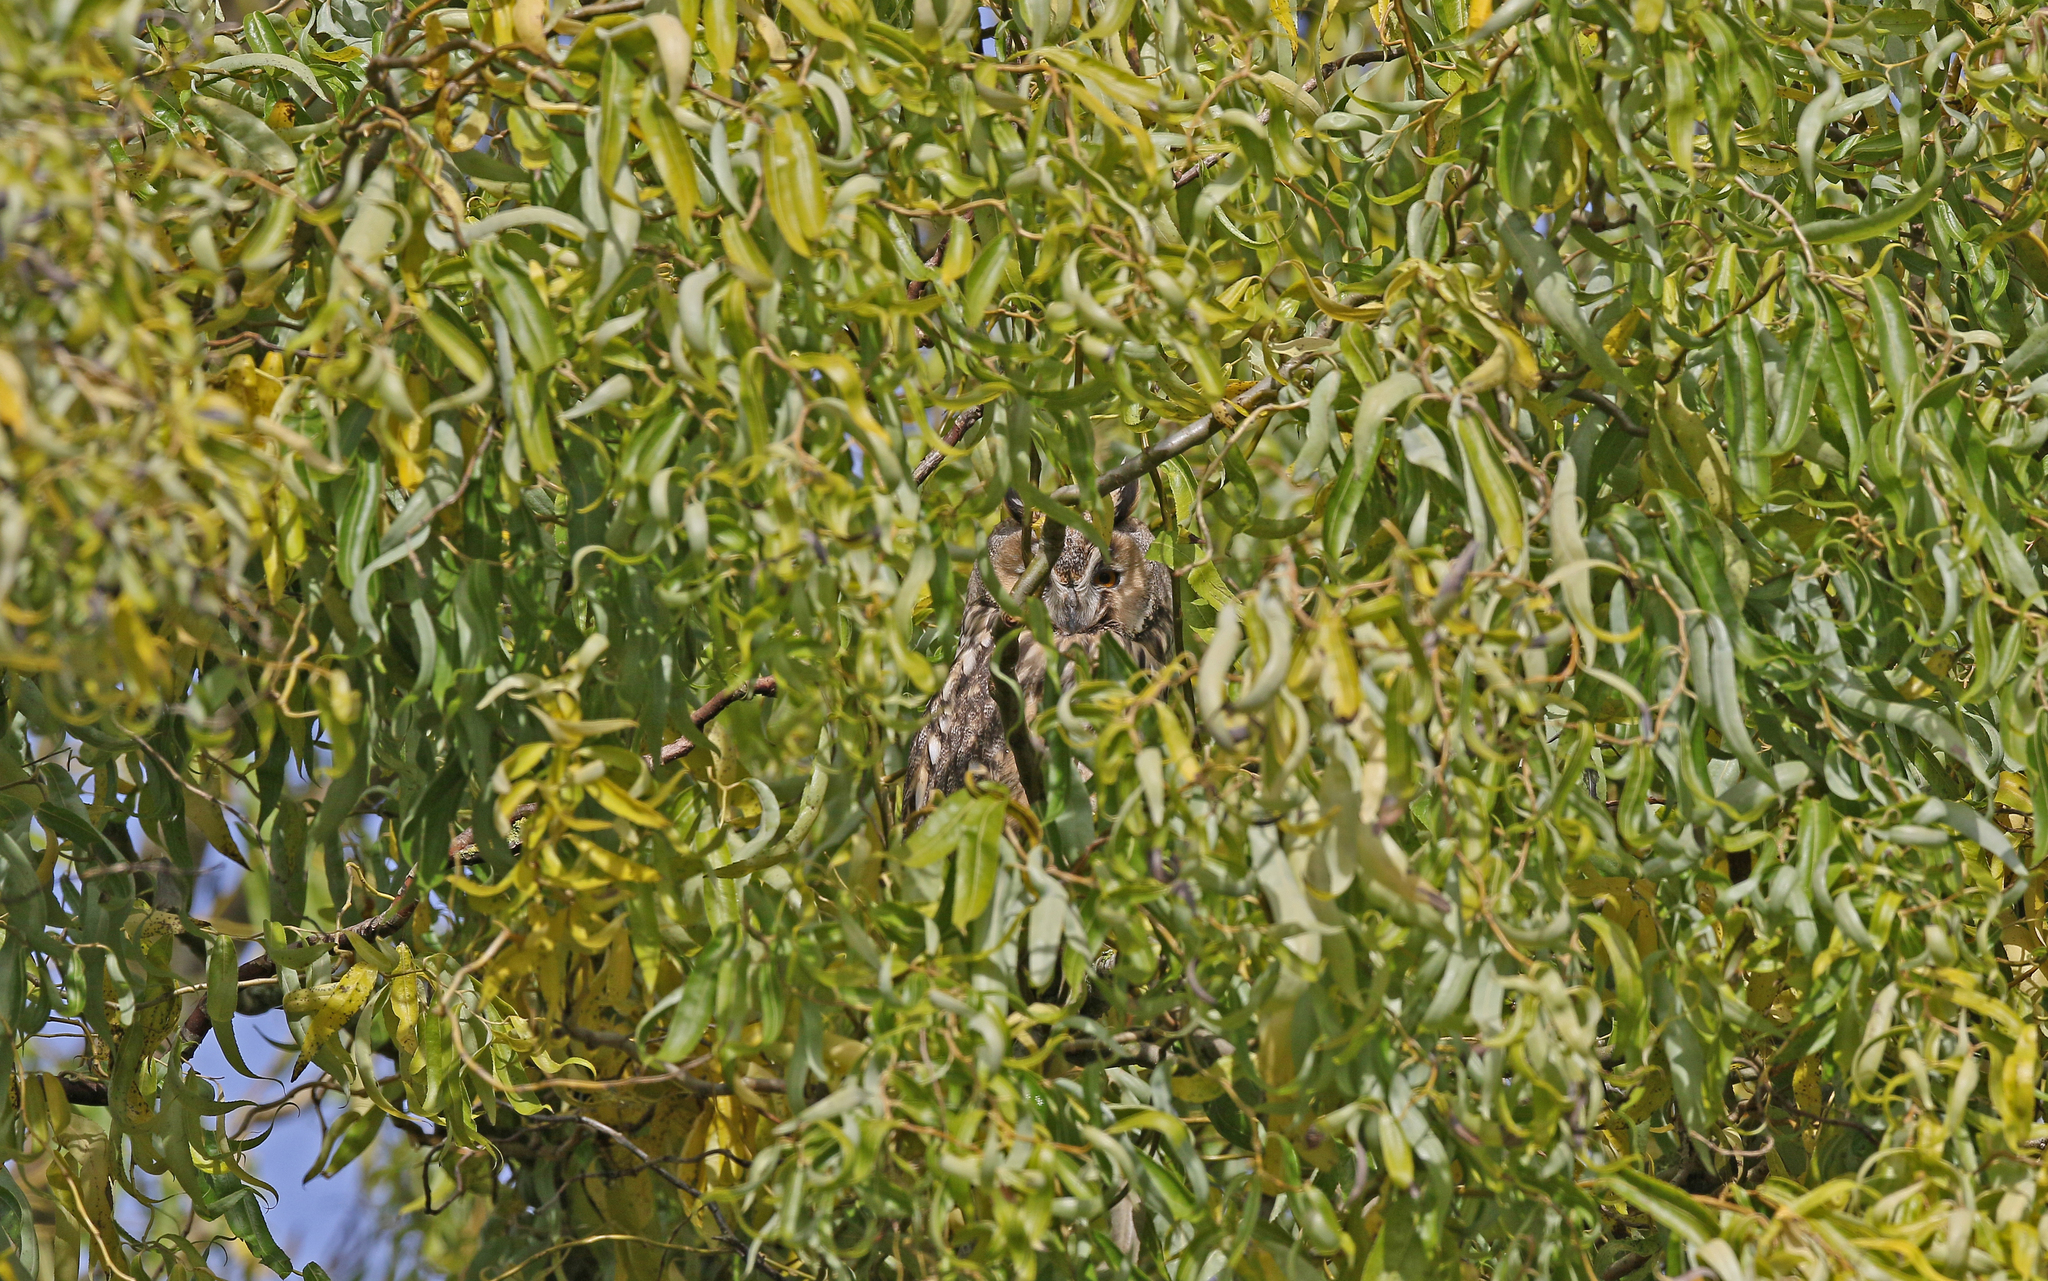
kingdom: Animalia
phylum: Chordata
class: Aves
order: Strigiformes
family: Strigidae
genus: Asio
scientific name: Asio otus
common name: Long-eared owl
